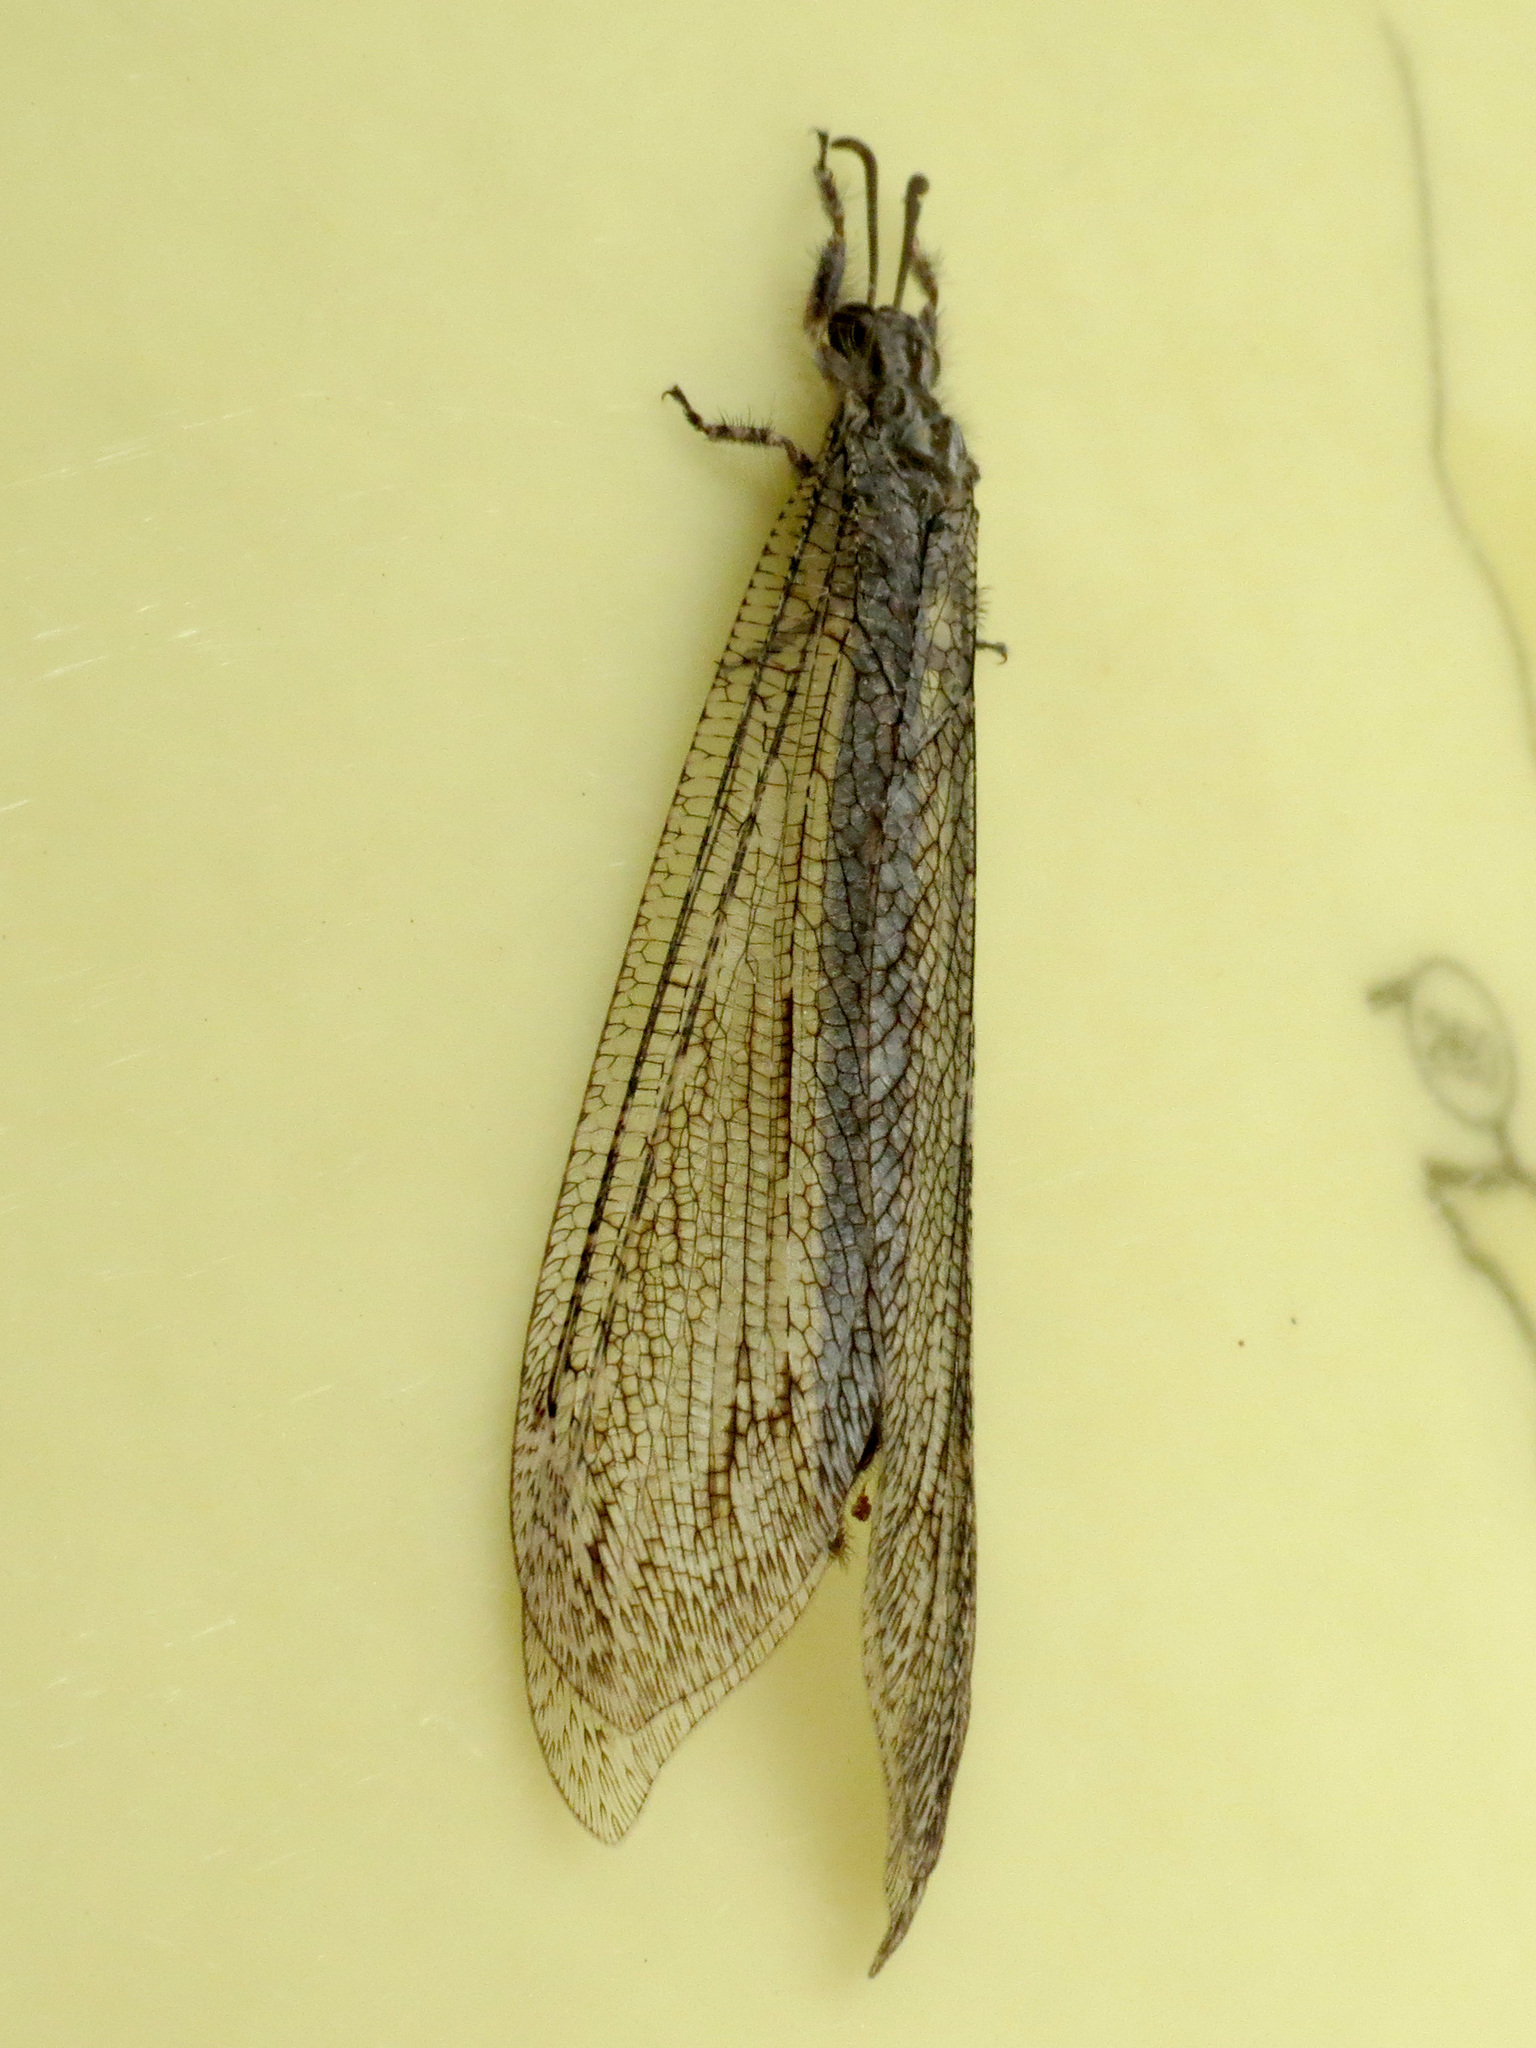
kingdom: Animalia
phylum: Arthropoda
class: Insecta
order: Neuroptera
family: Myrmeleontidae
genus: Vella
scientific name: Vella fallax
